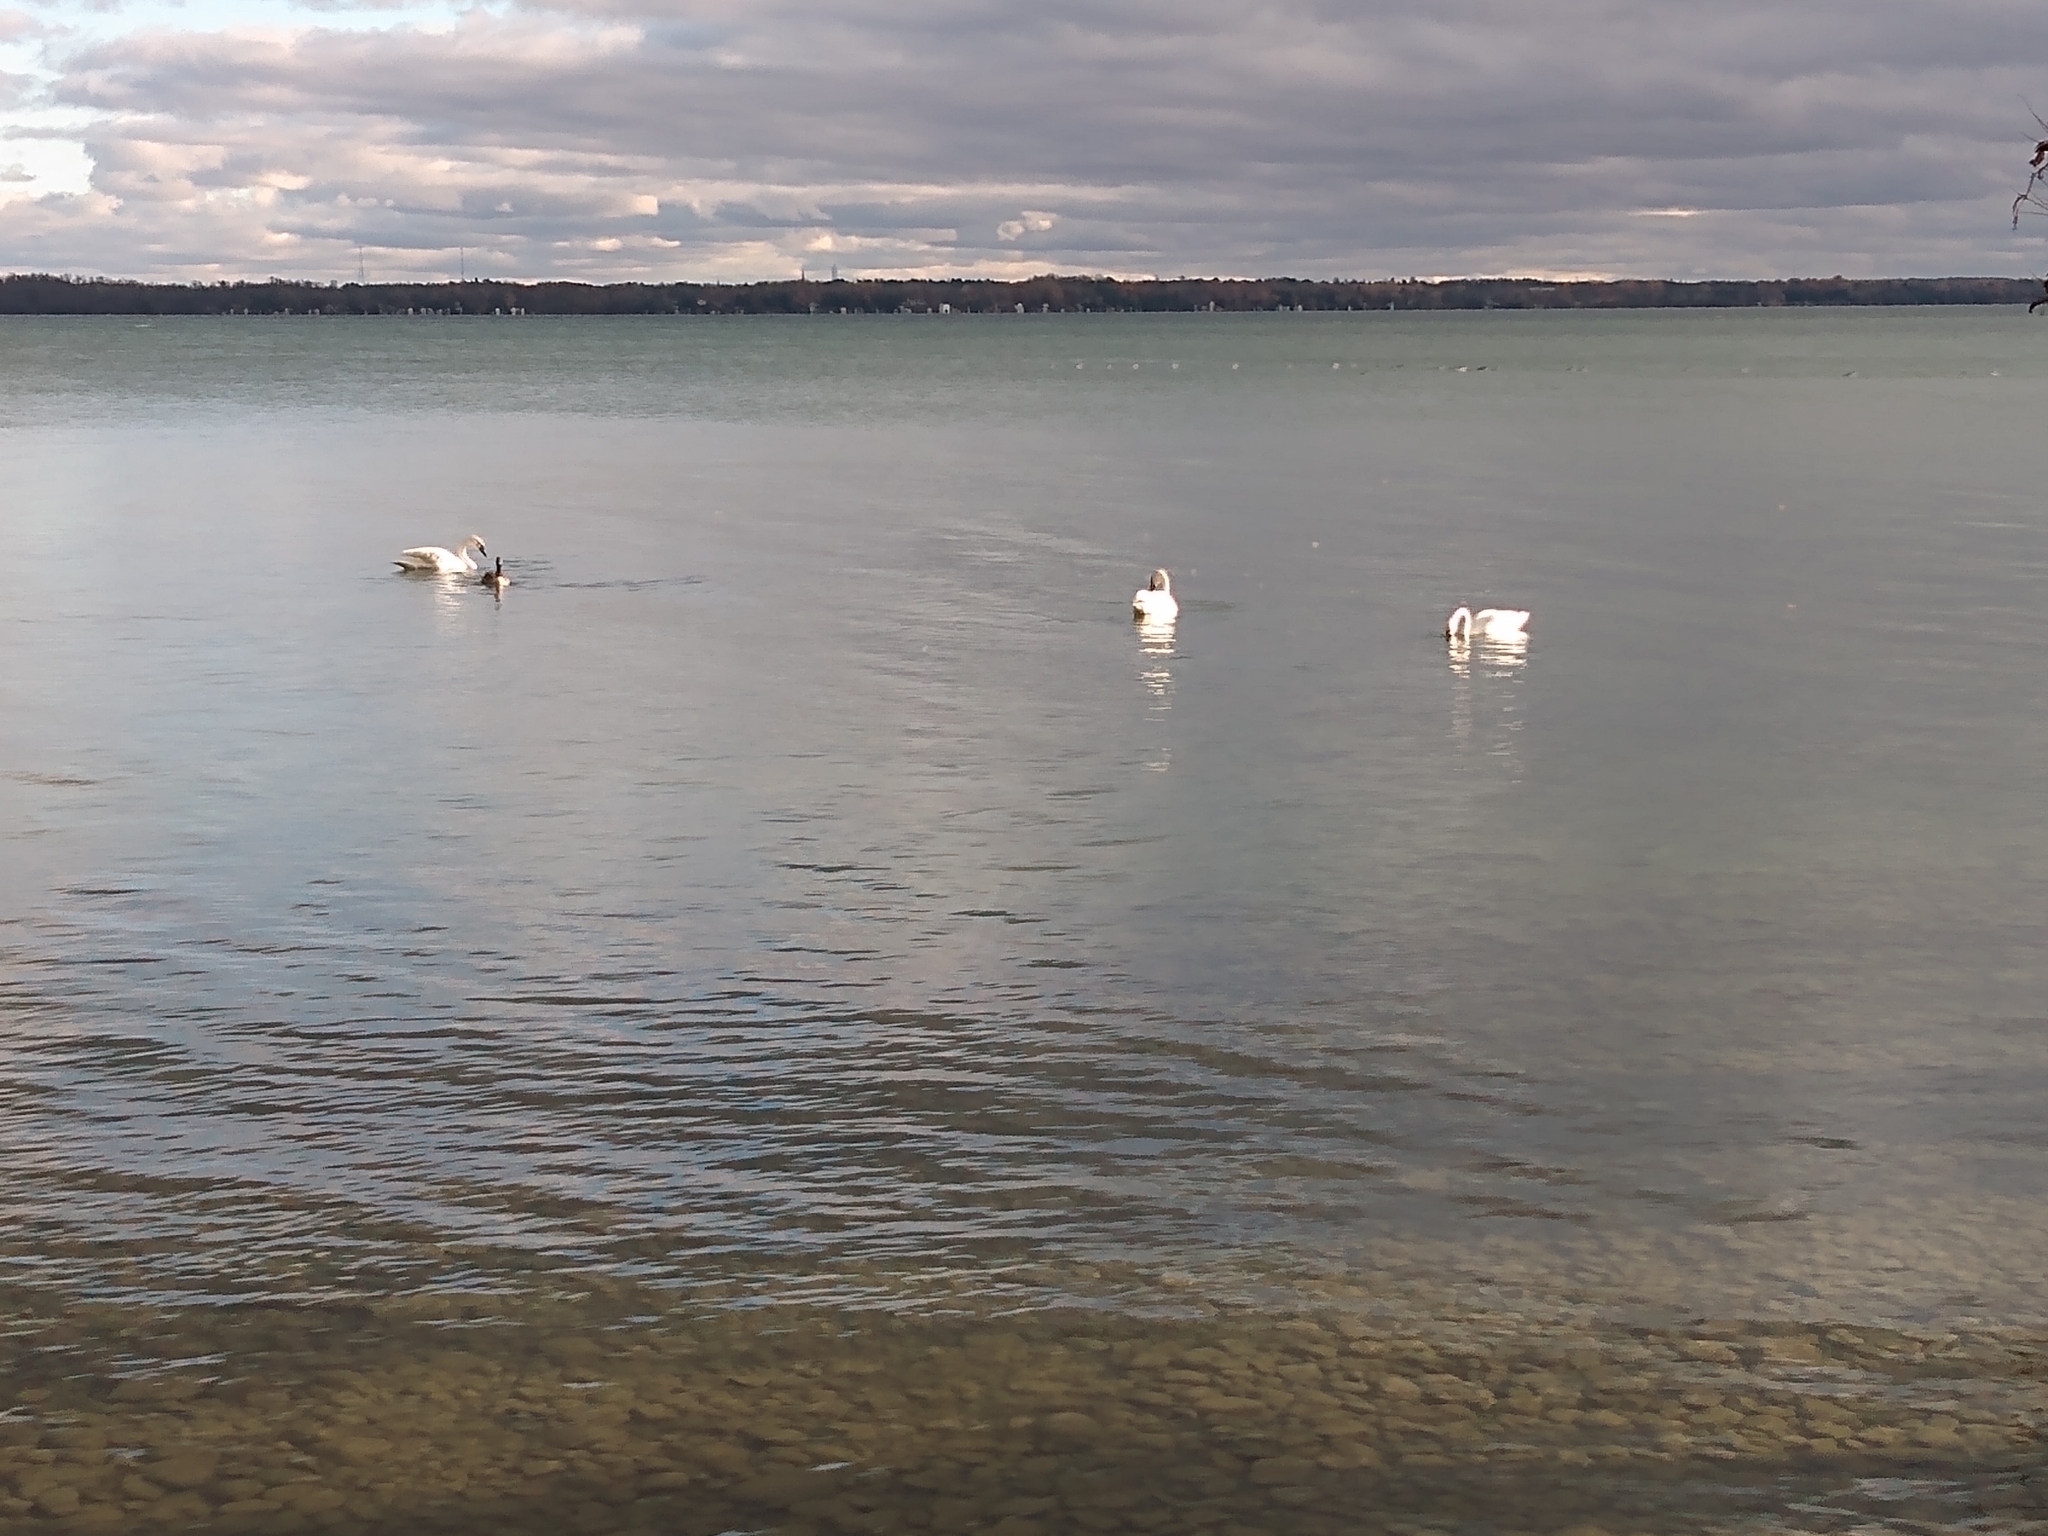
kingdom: Animalia
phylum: Chordata
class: Aves
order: Anseriformes
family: Anatidae
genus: Cygnus
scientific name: Cygnus buccinator
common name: Trumpeter swan
